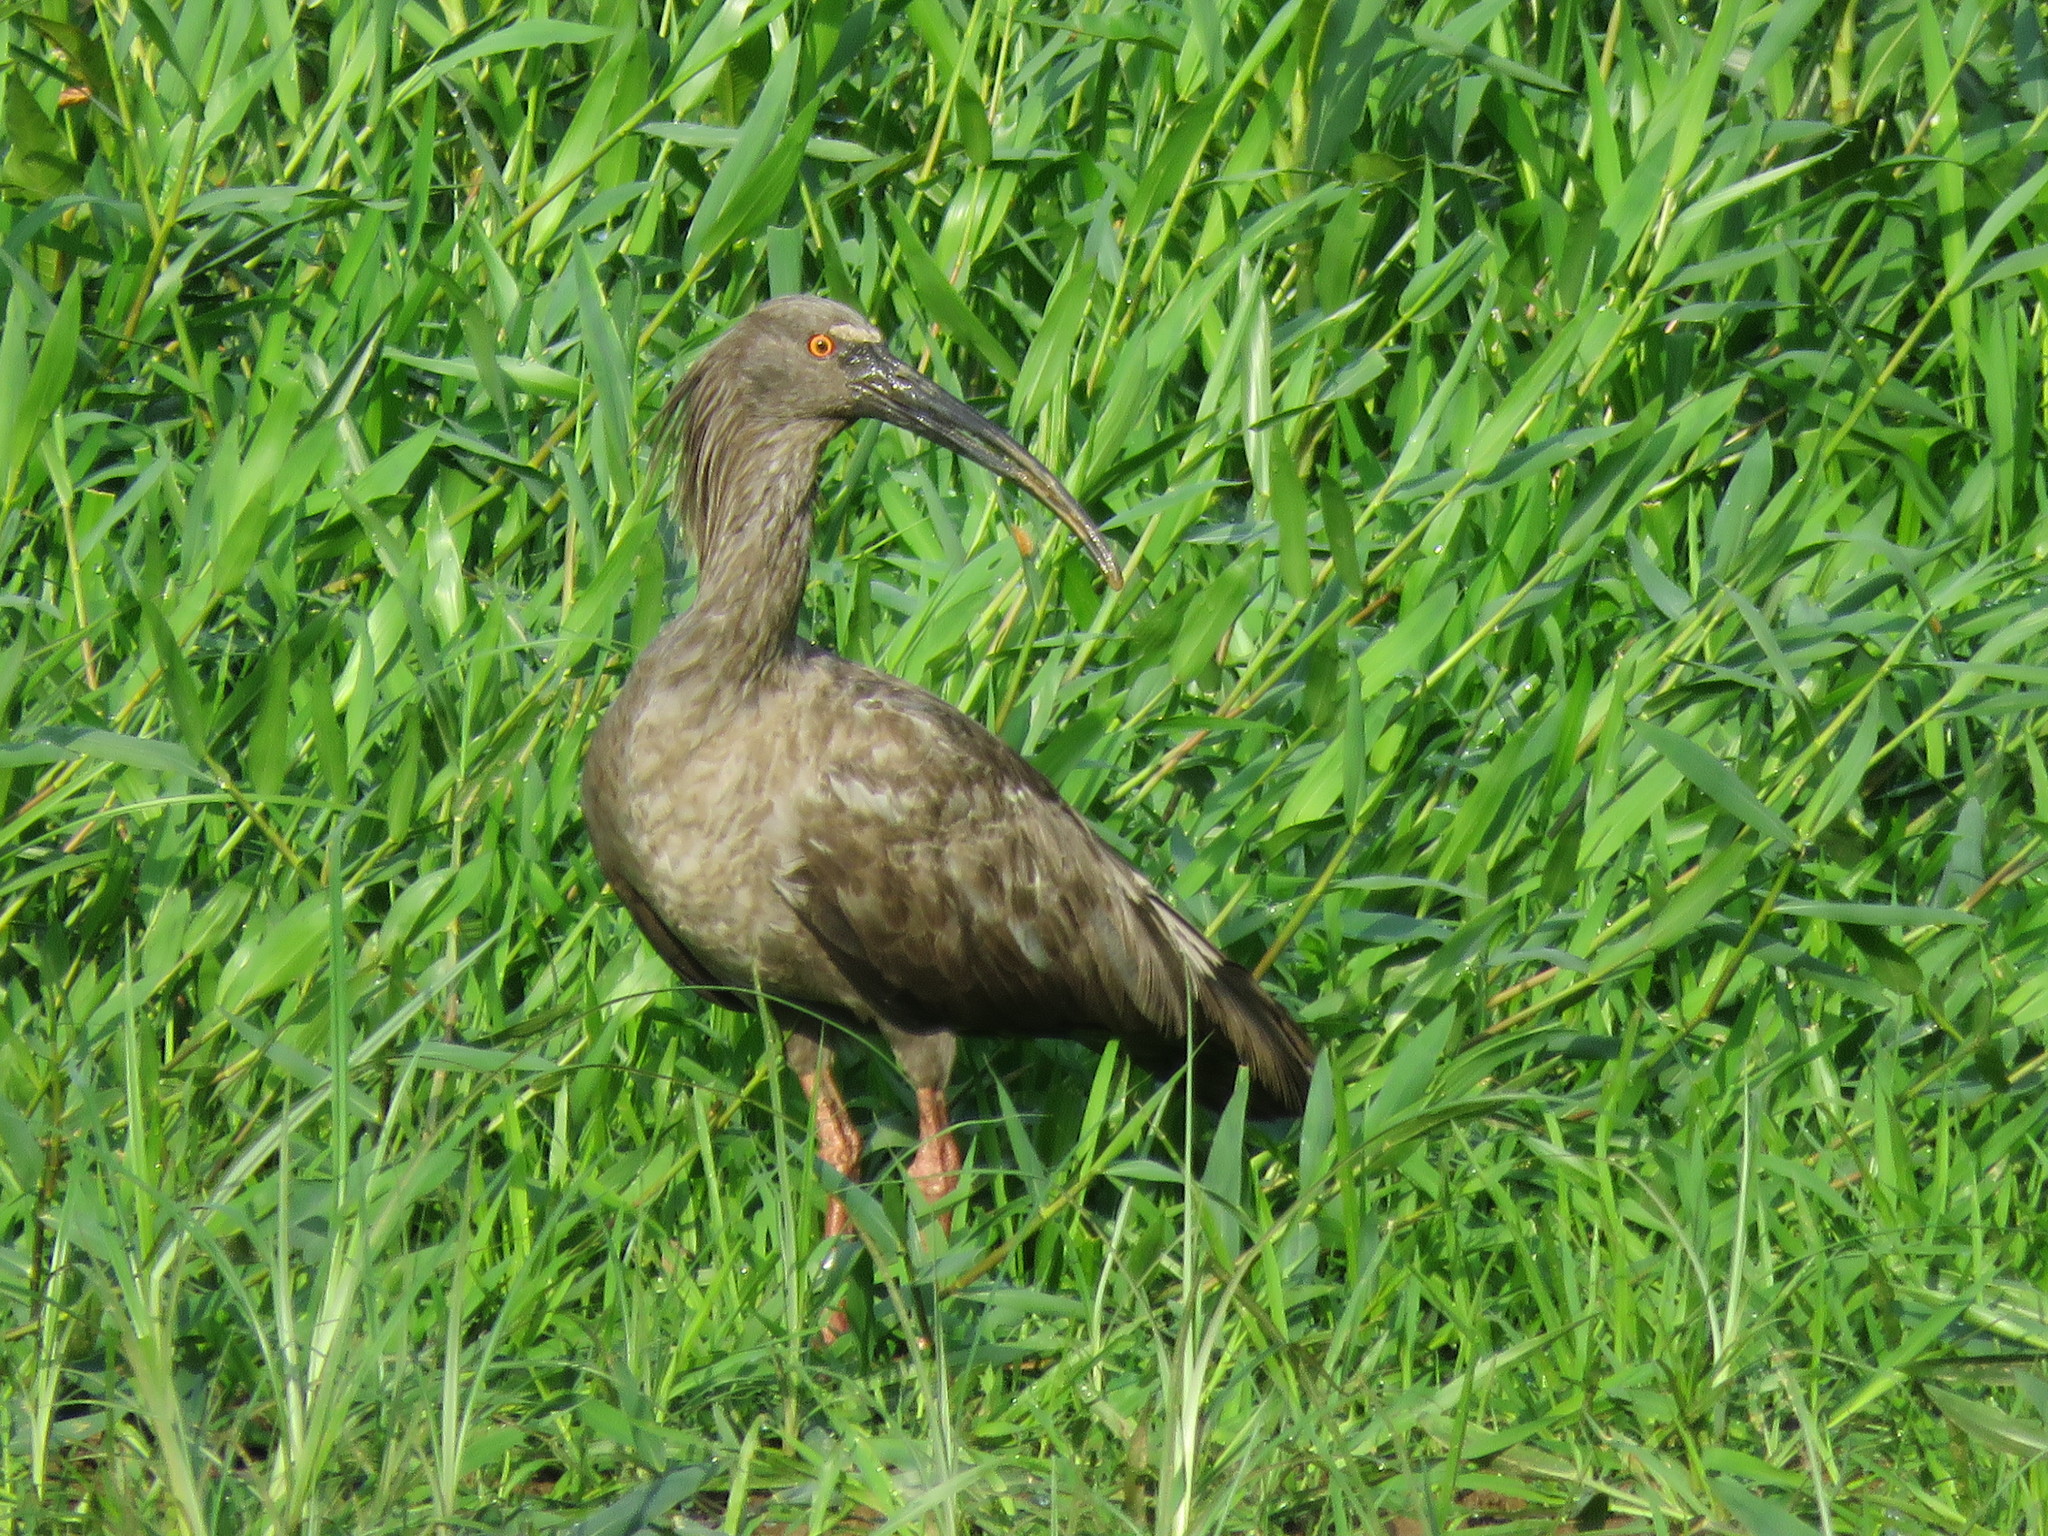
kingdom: Animalia
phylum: Chordata
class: Aves
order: Pelecaniformes
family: Threskiornithidae
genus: Theristicus
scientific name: Theristicus caerulescens
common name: Plumbeous ibis
